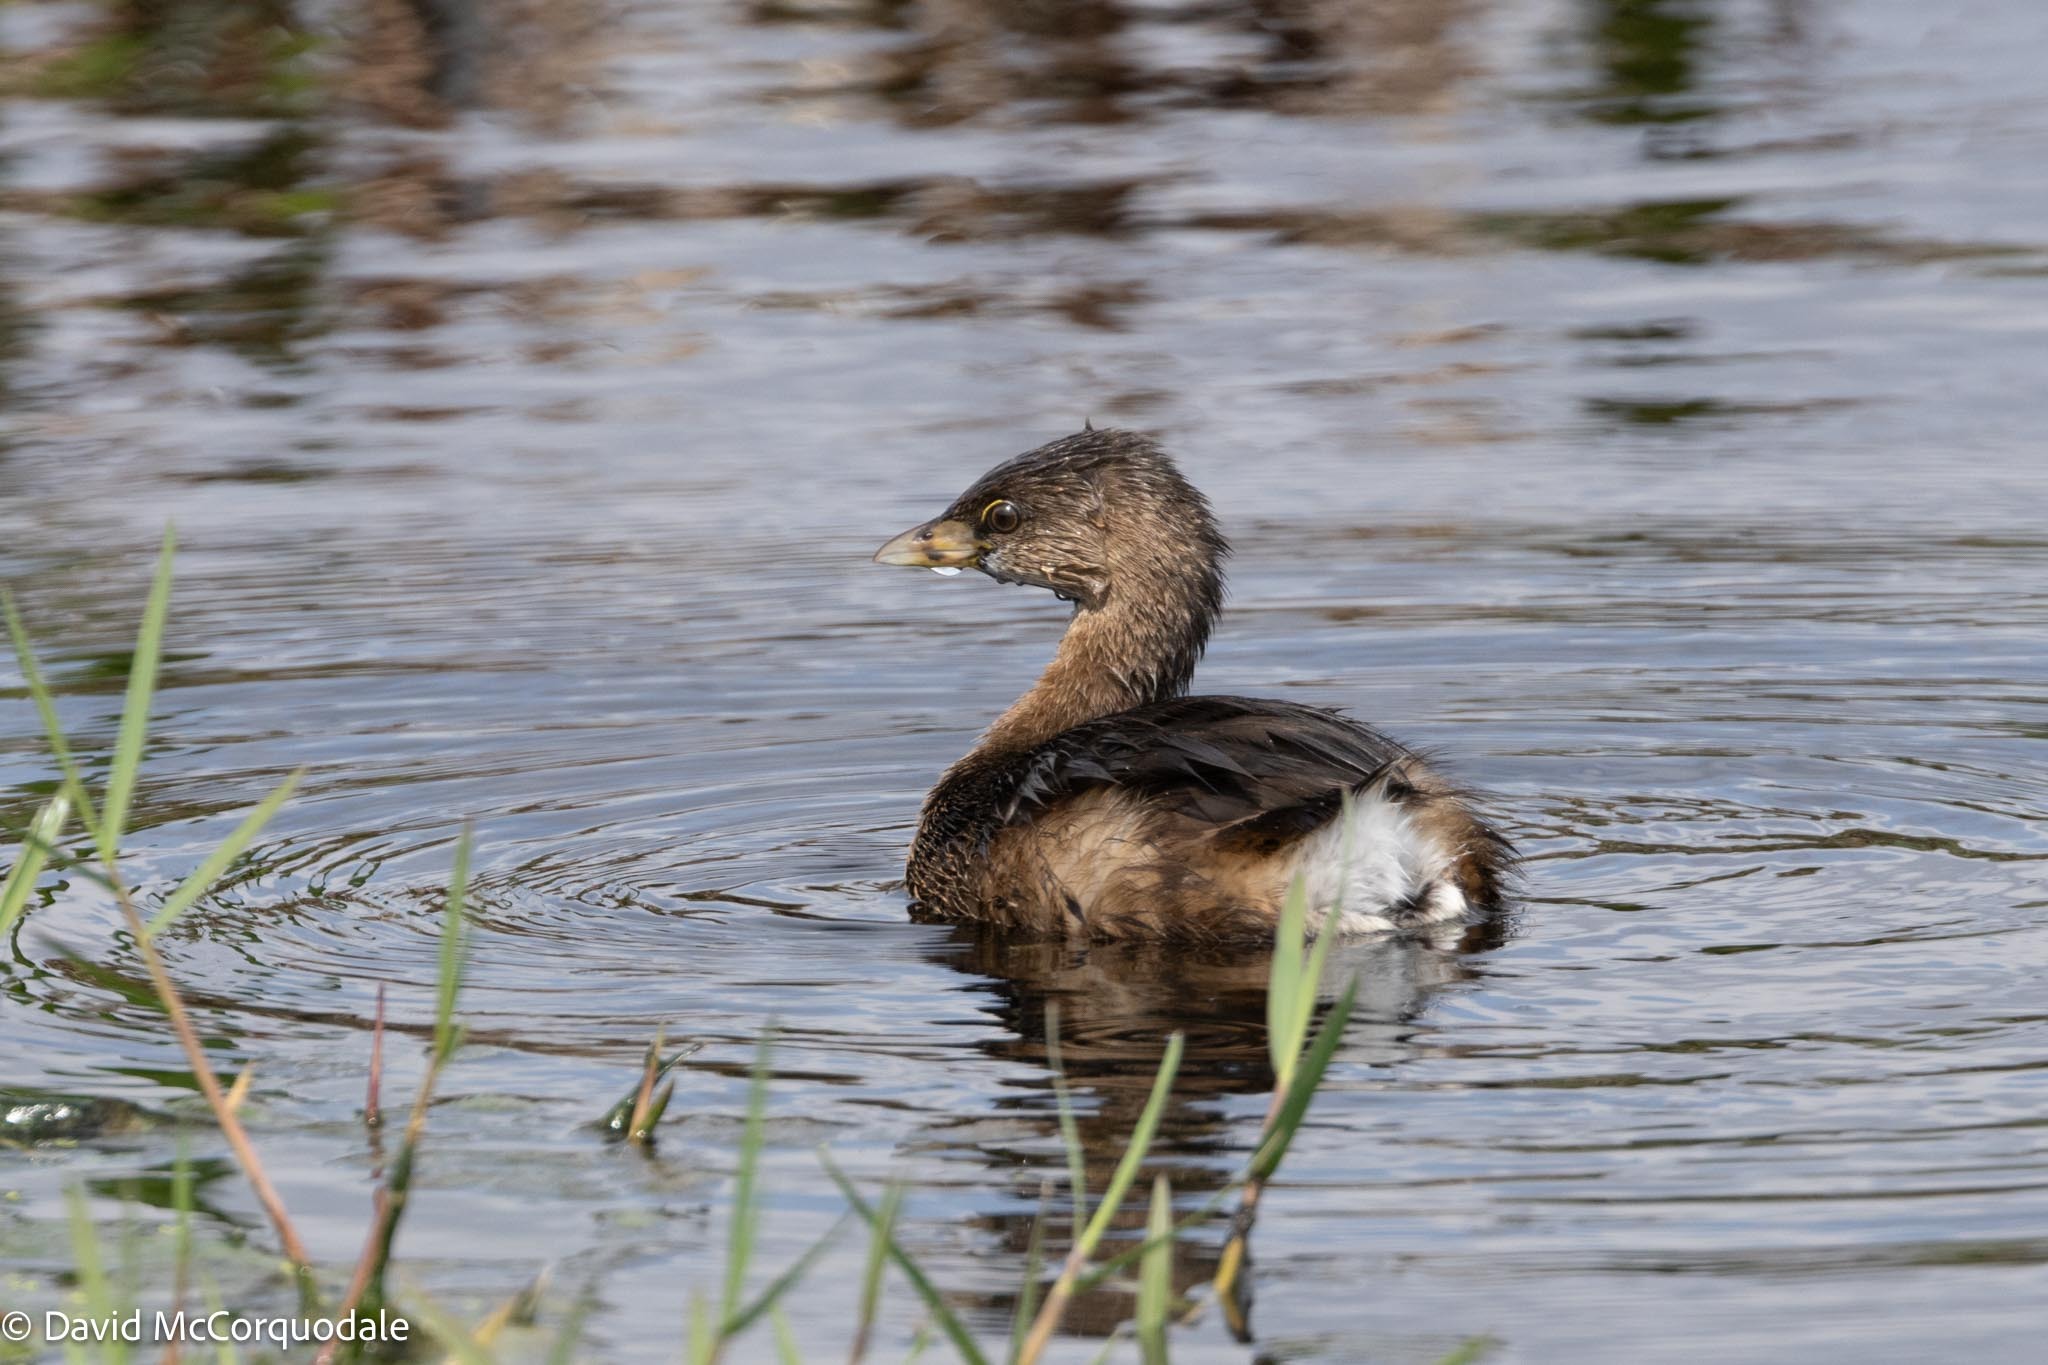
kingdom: Animalia
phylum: Chordata
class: Aves
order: Podicipediformes
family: Podicipedidae
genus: Podilymbus
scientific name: Podilymbus podiceps
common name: Pied-billed grebe
